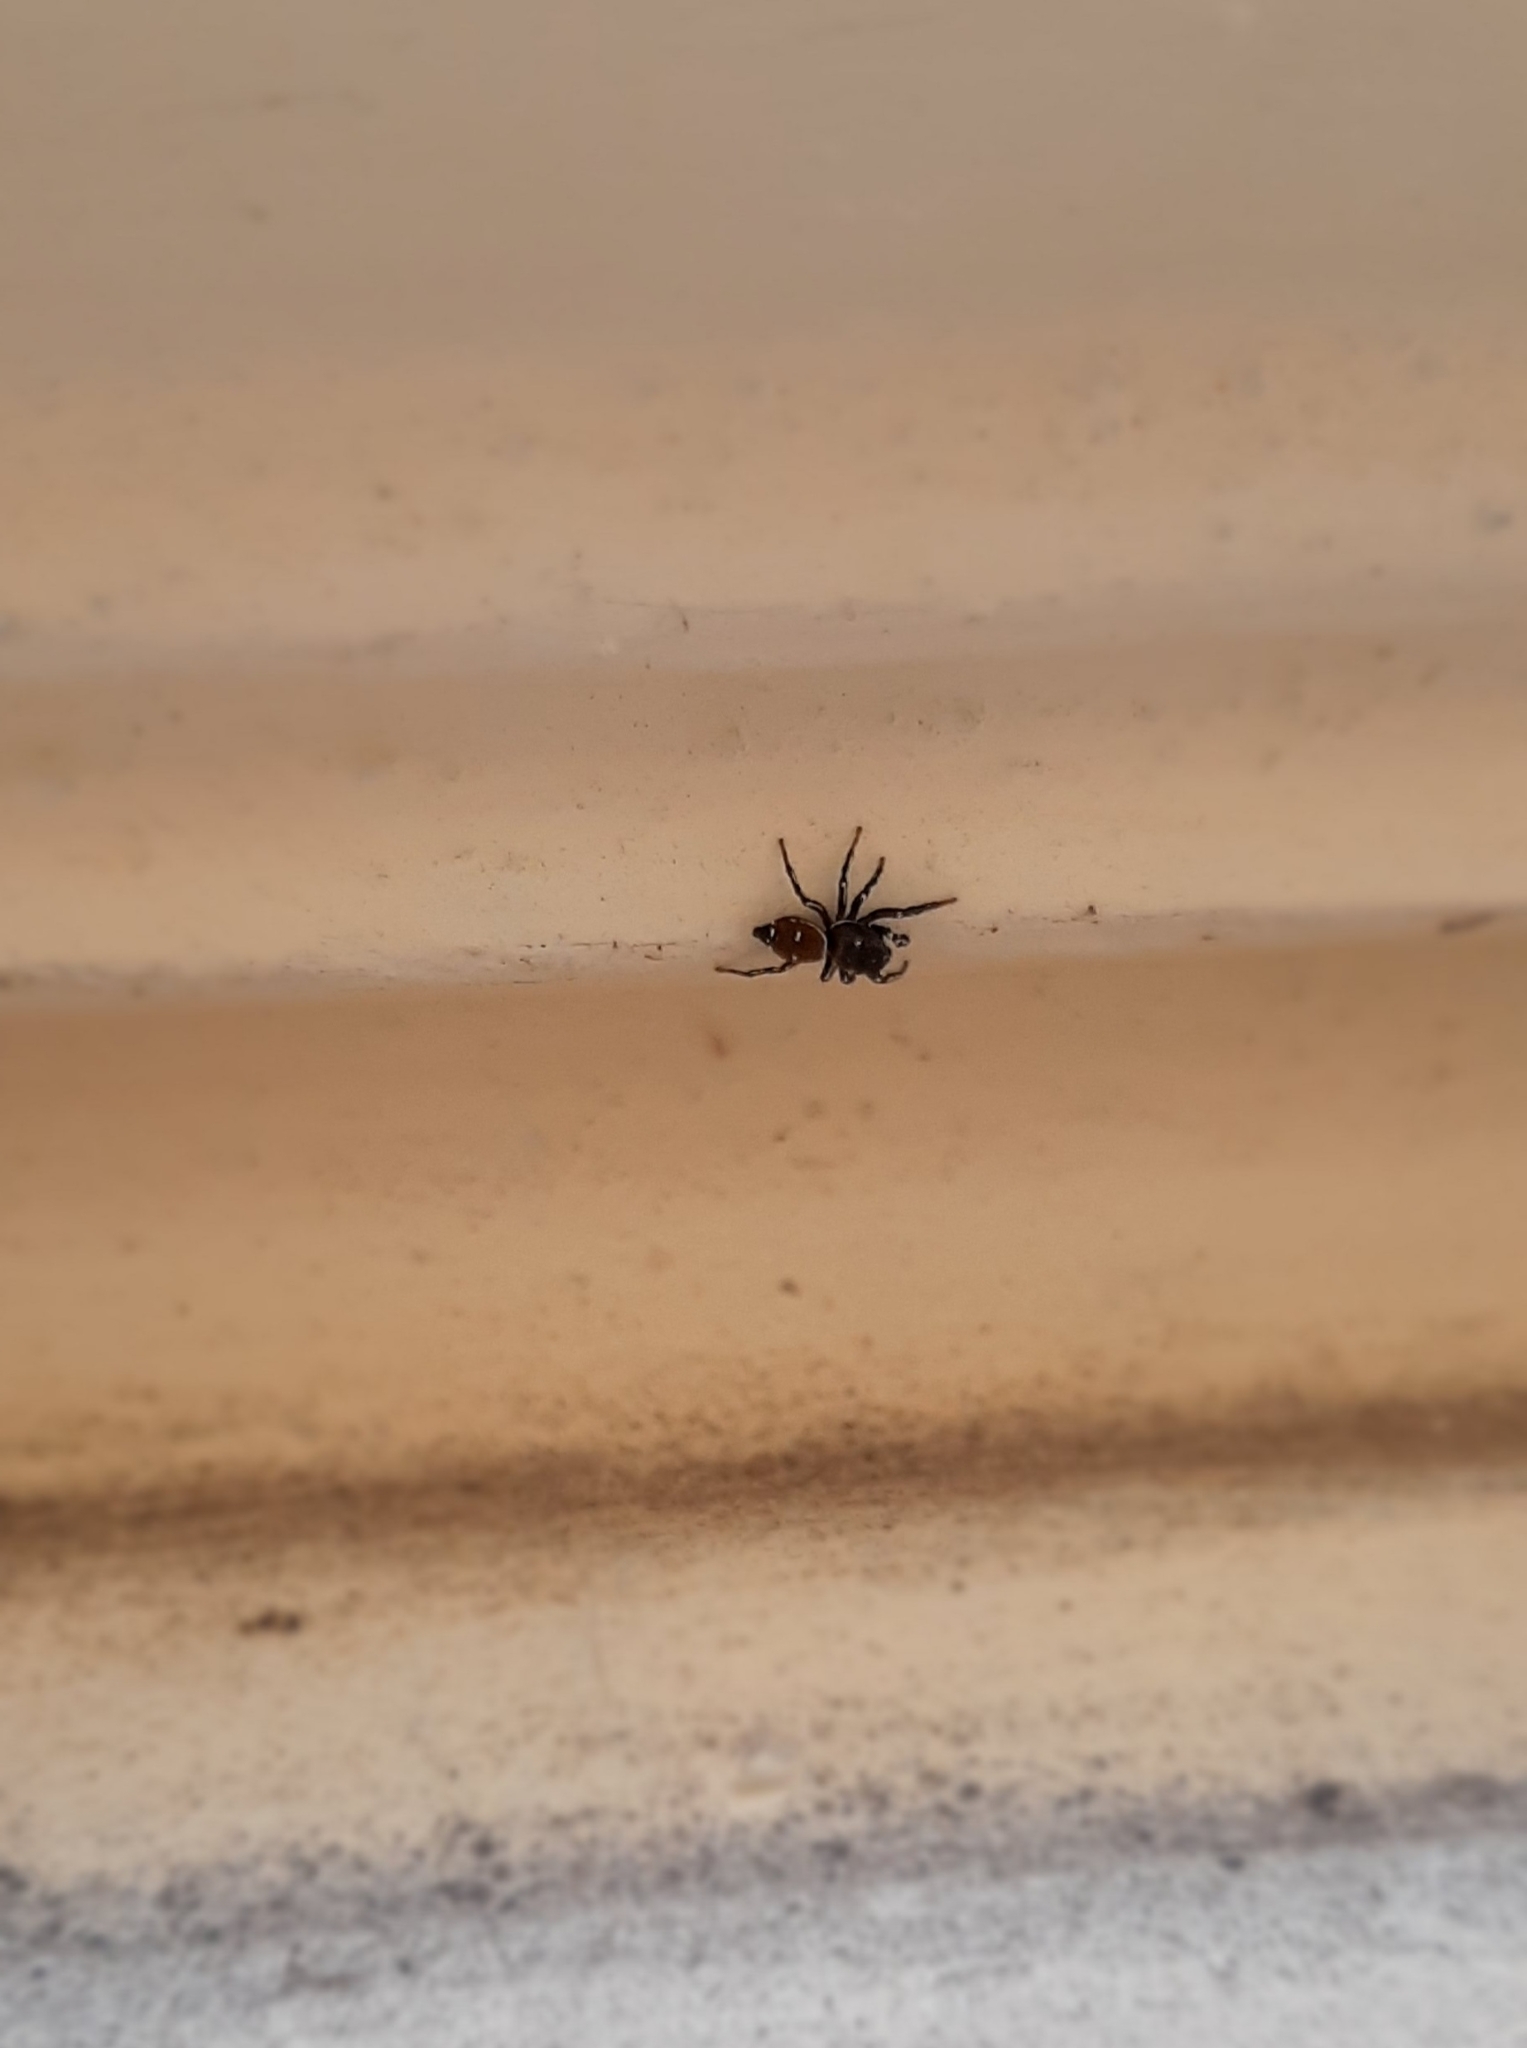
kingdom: Animalia
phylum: Arthropoda
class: Arachnida
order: Araneae
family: Salticidae
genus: Heliophanus
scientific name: Heliophanus
